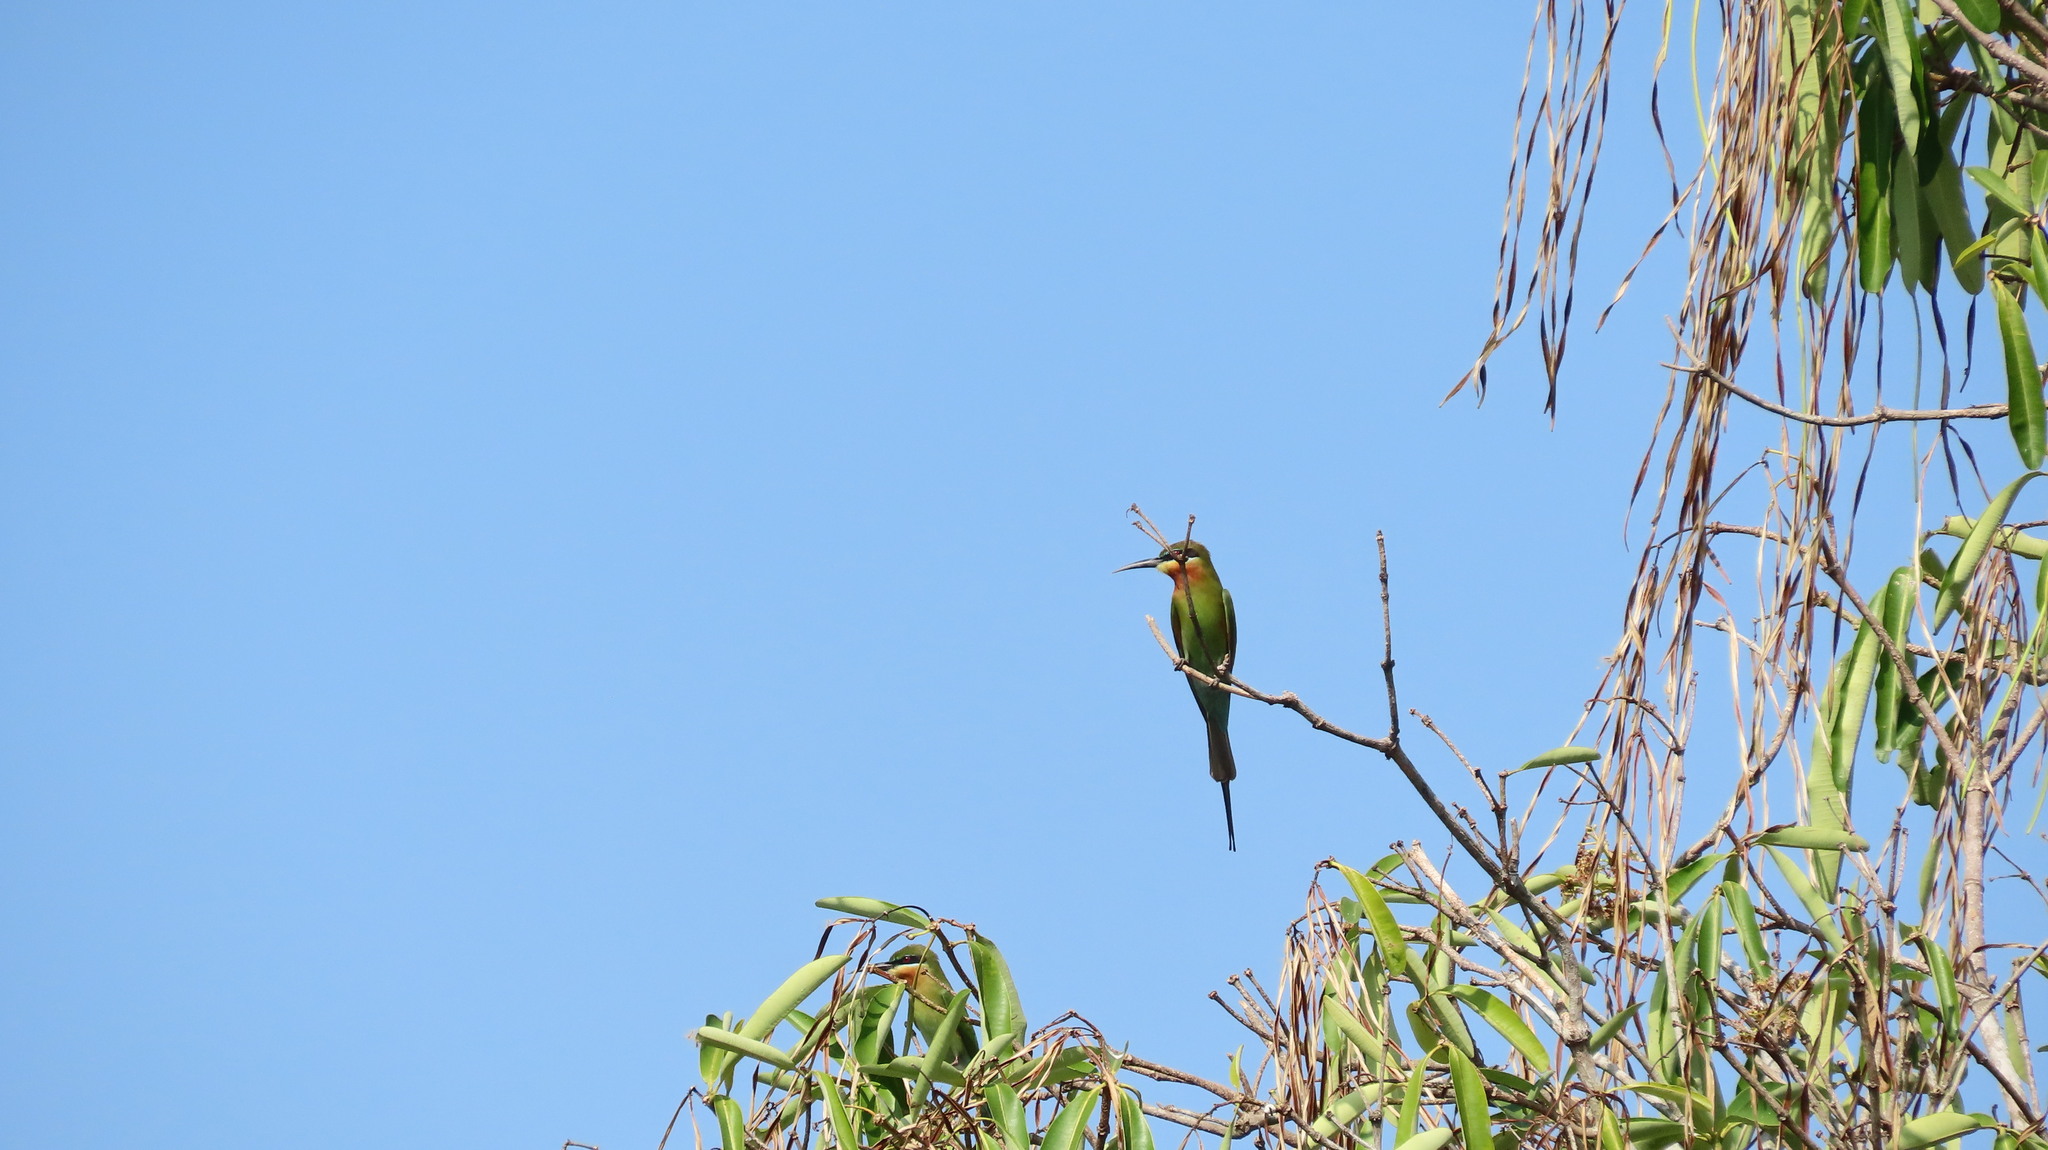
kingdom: Animalia
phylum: Chordata
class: Aves
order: Coraciiformes
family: Meropidae
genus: Merops
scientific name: Merops philippinus
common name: Blue-tailed bee-eater
